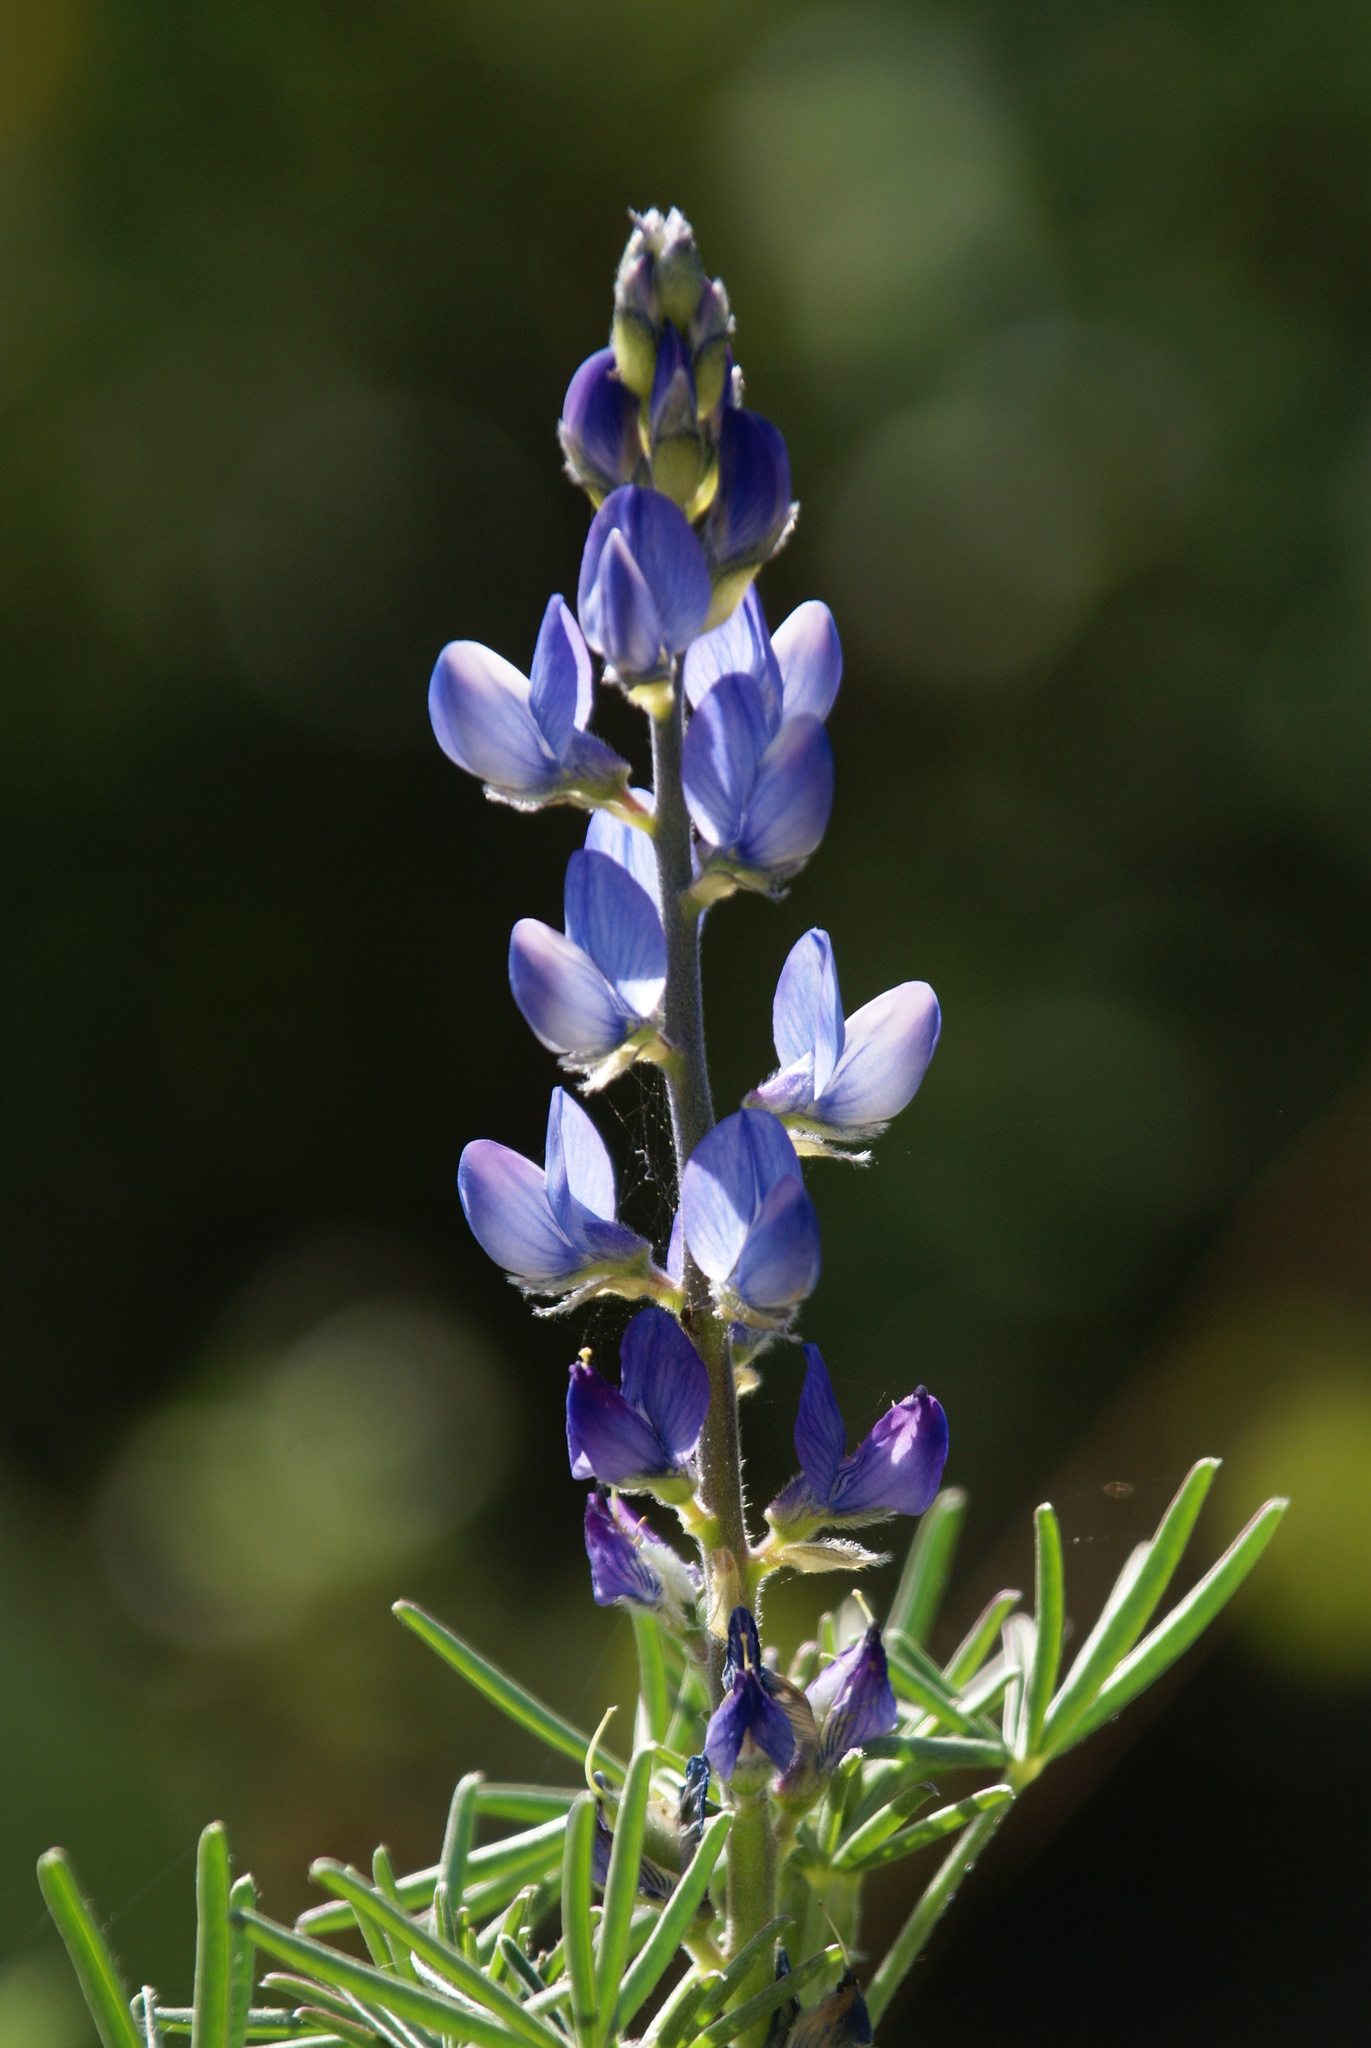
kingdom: Plantae
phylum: Tracheophyta
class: Magnoliopsida
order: Fabales
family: Fabaceae
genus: Lupinus
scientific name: Lupinus angustifolius
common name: Narrow-leaved lupin
